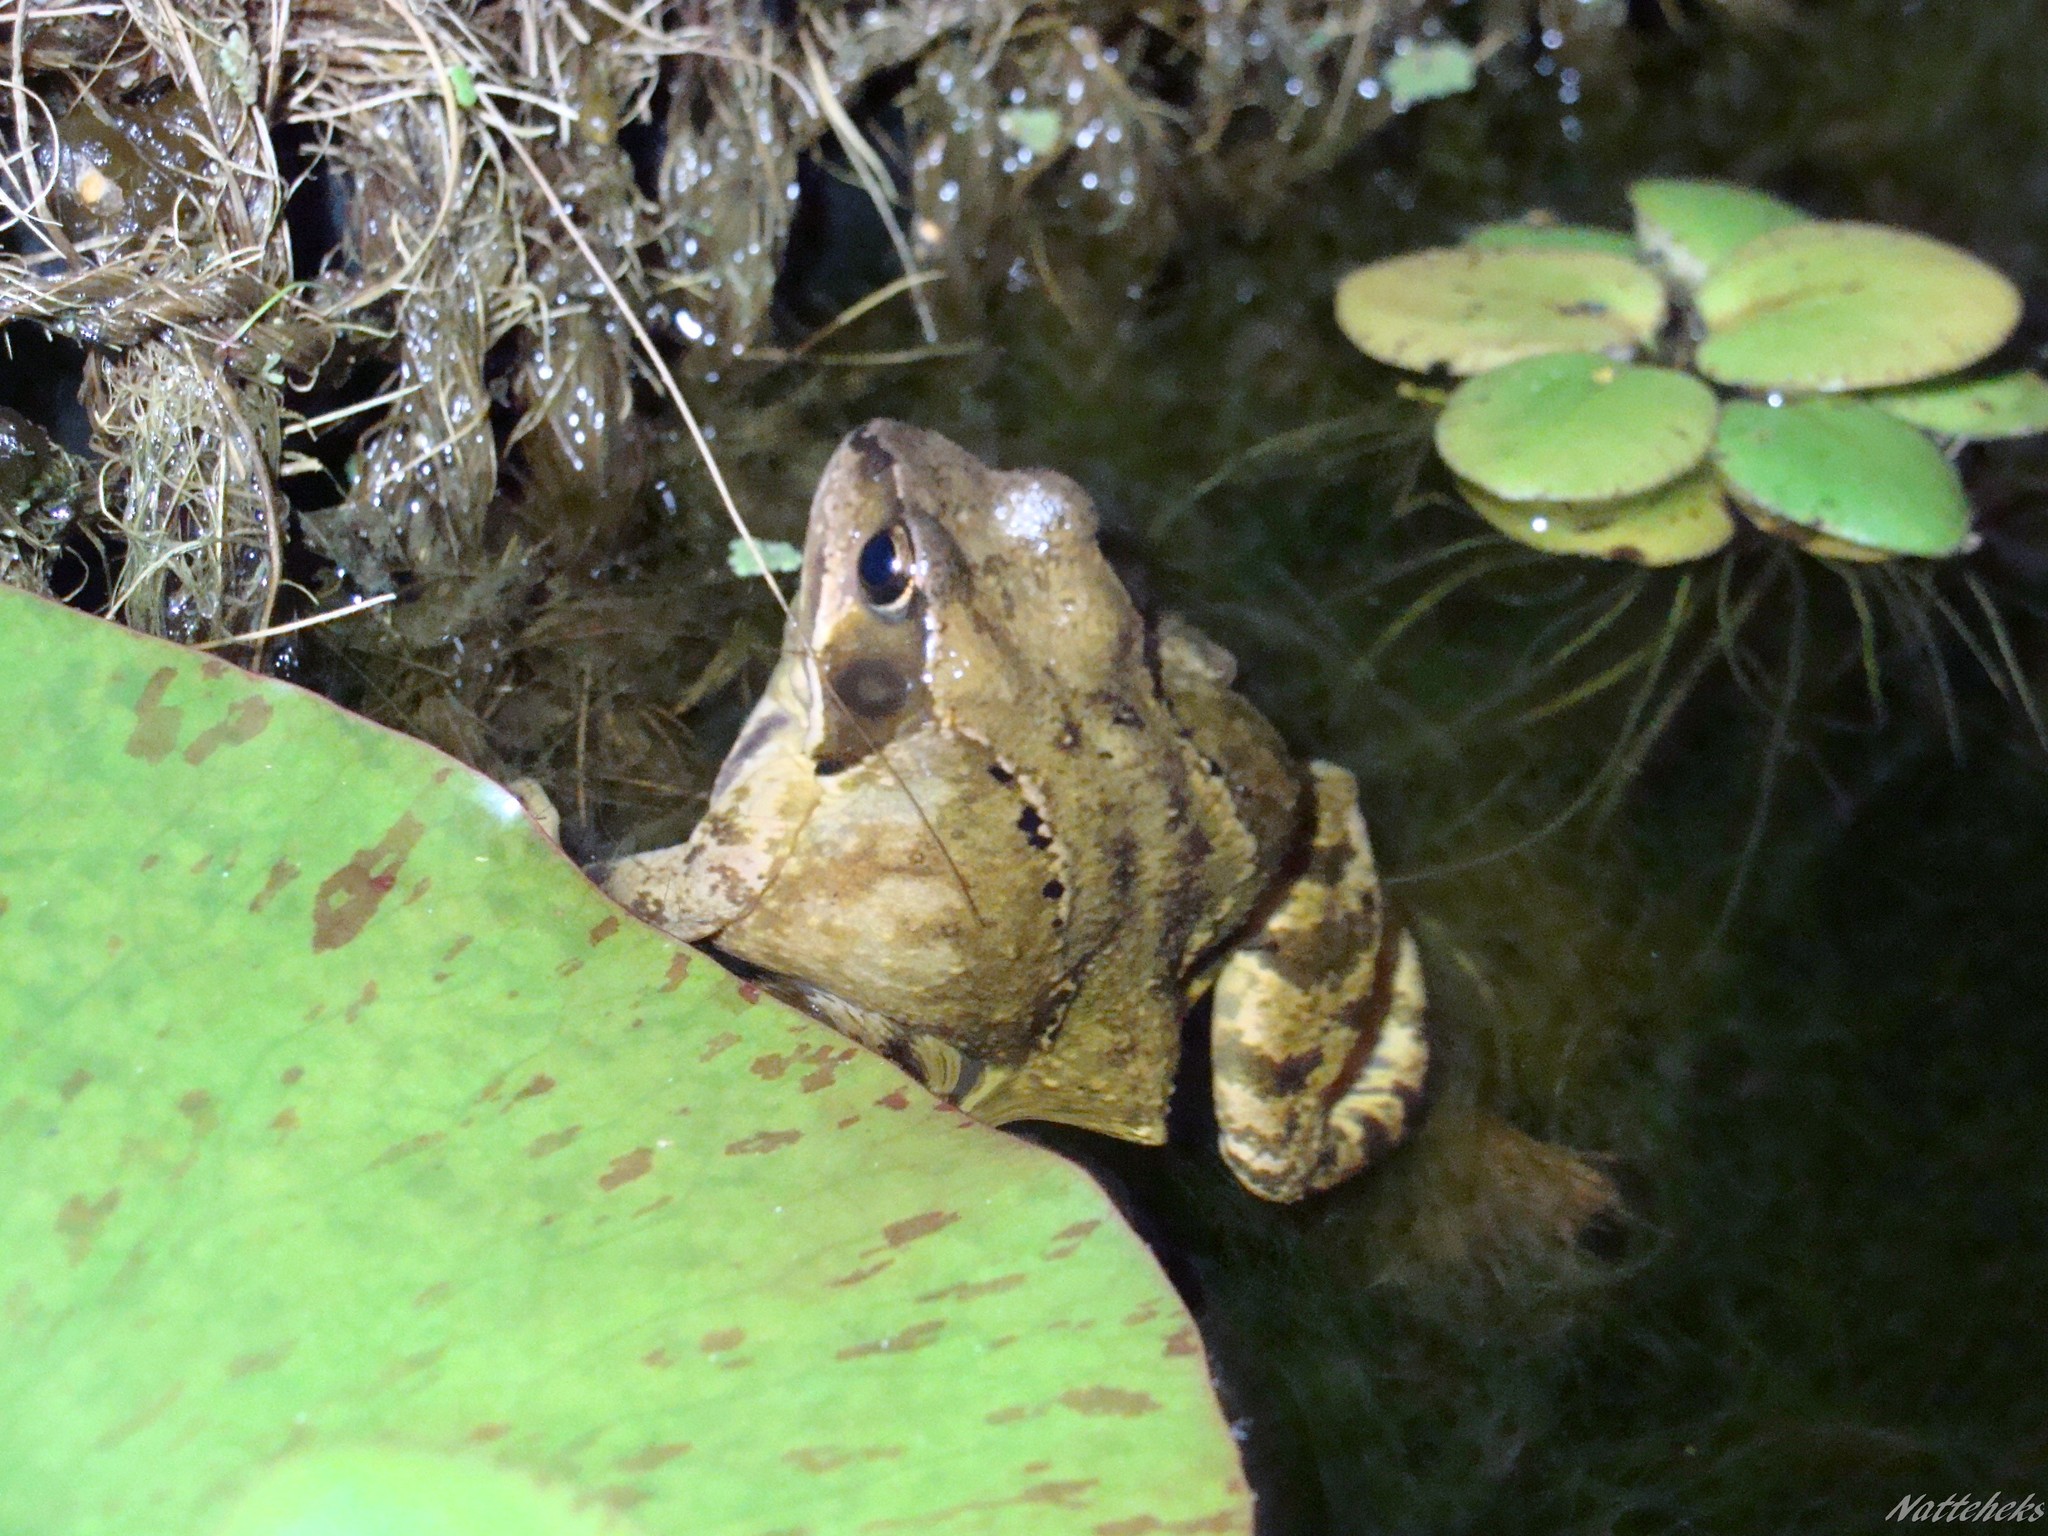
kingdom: Animalia
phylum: Chordata
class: Amphibia
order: Anura
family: Ranidae
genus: Rana
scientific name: Rana temporaria
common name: Common frog
